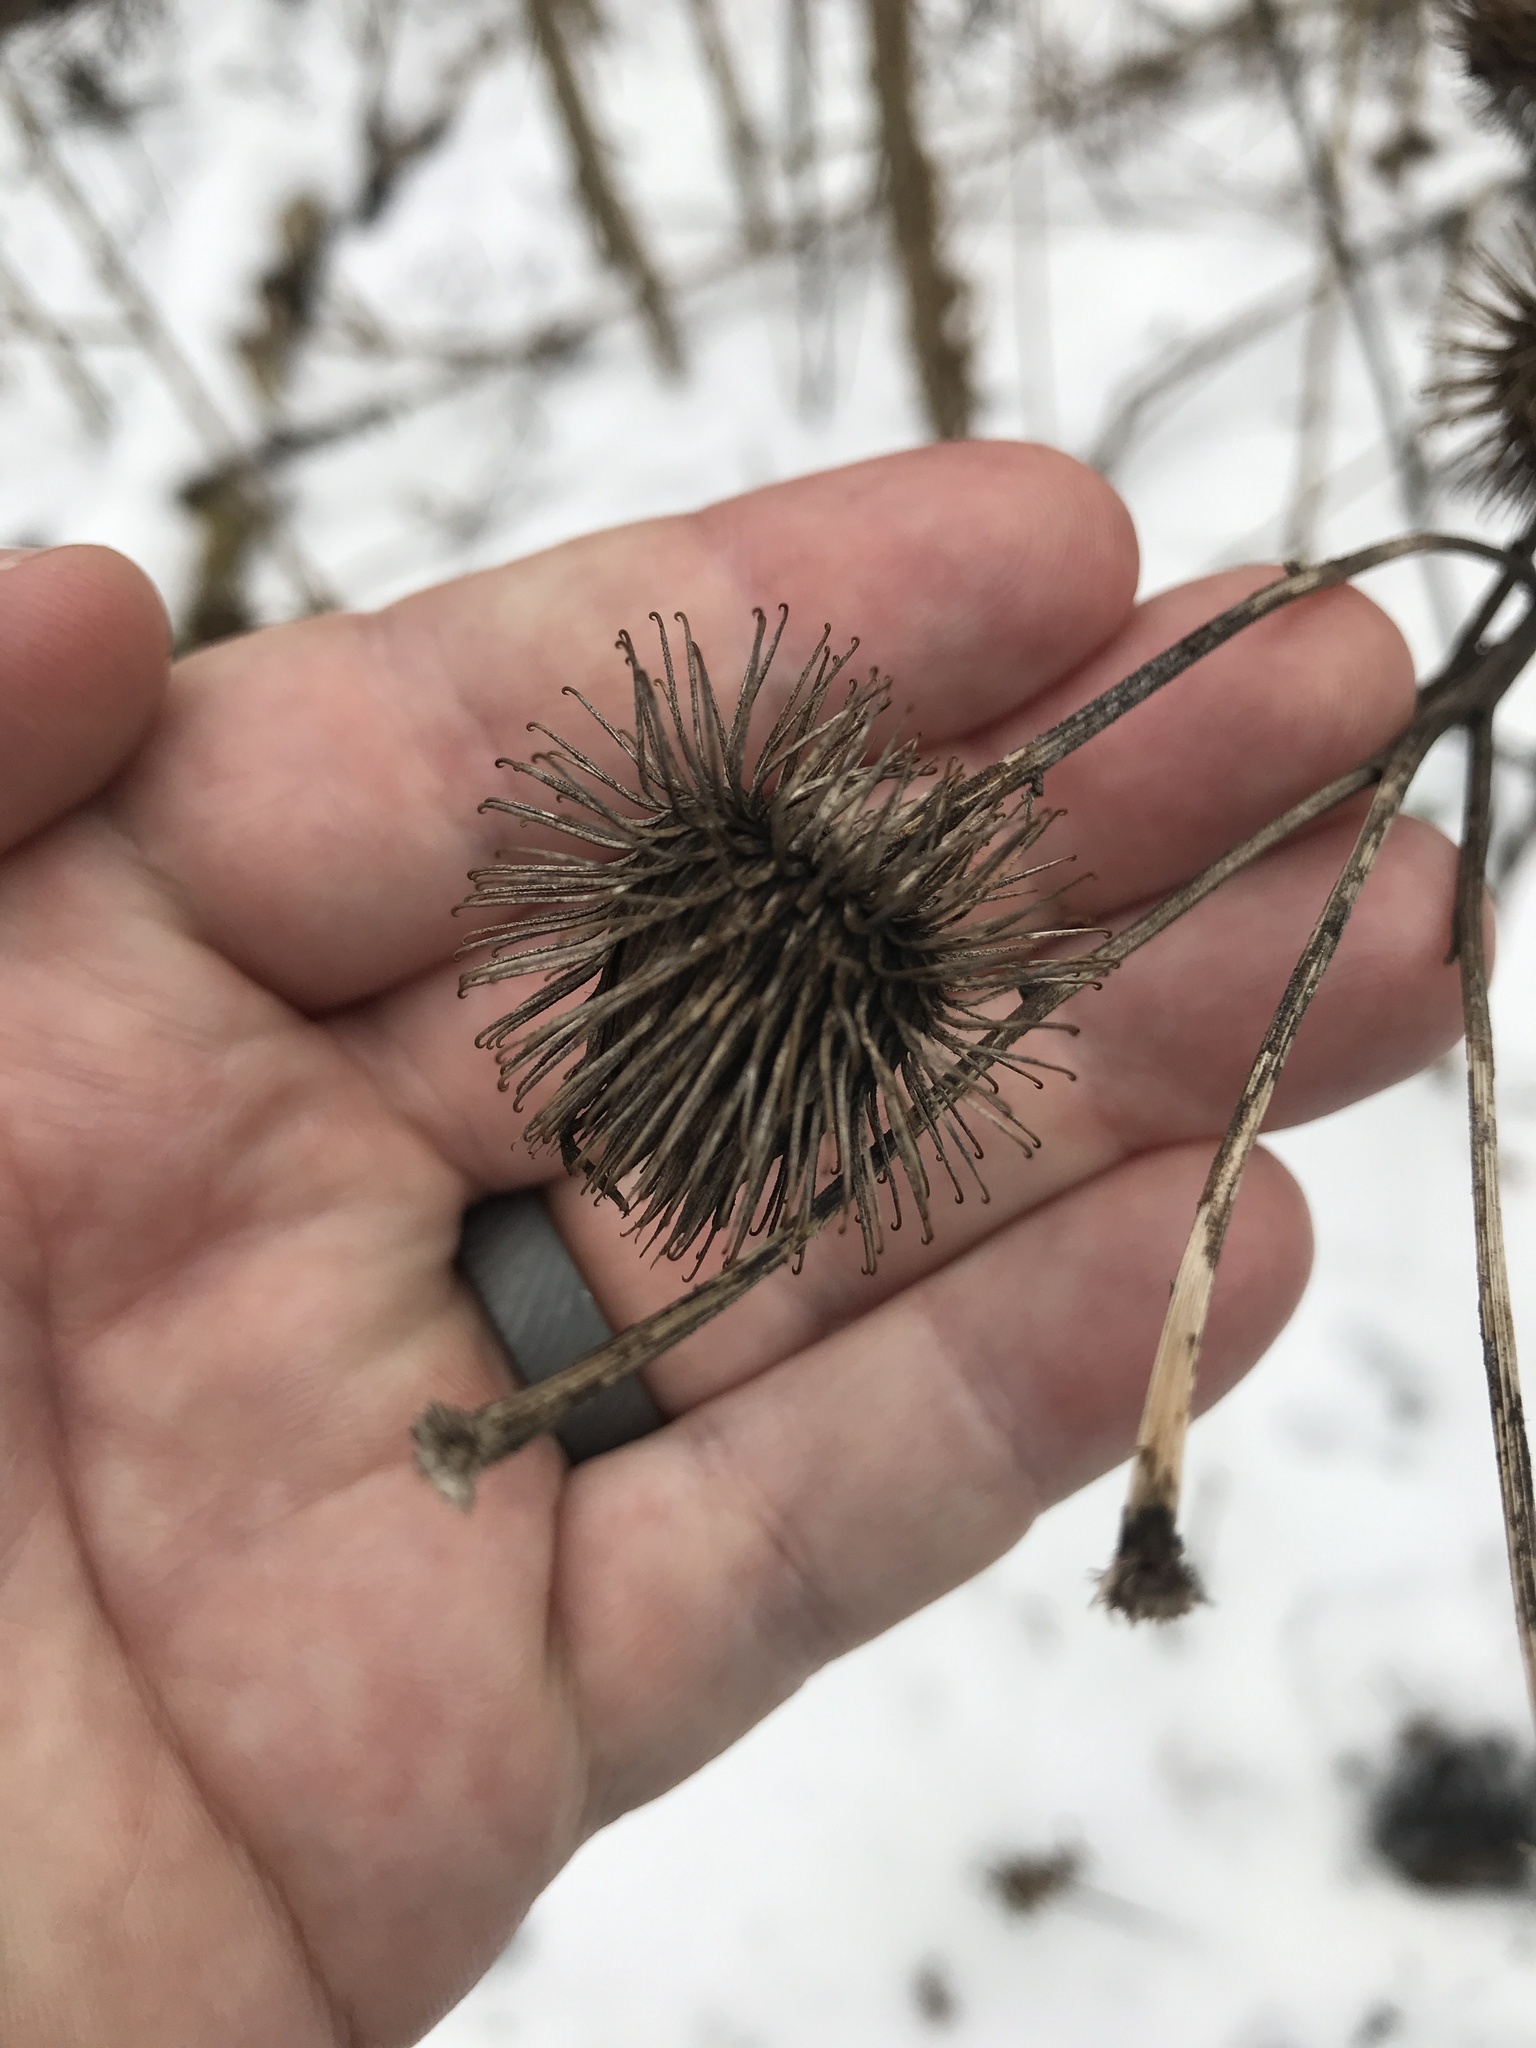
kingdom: Plantae
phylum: Tracheophyta
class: Magnoliopsida
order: Asterales
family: Asteraceae
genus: Arctium
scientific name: Arctium lappa
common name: Greater burdock
